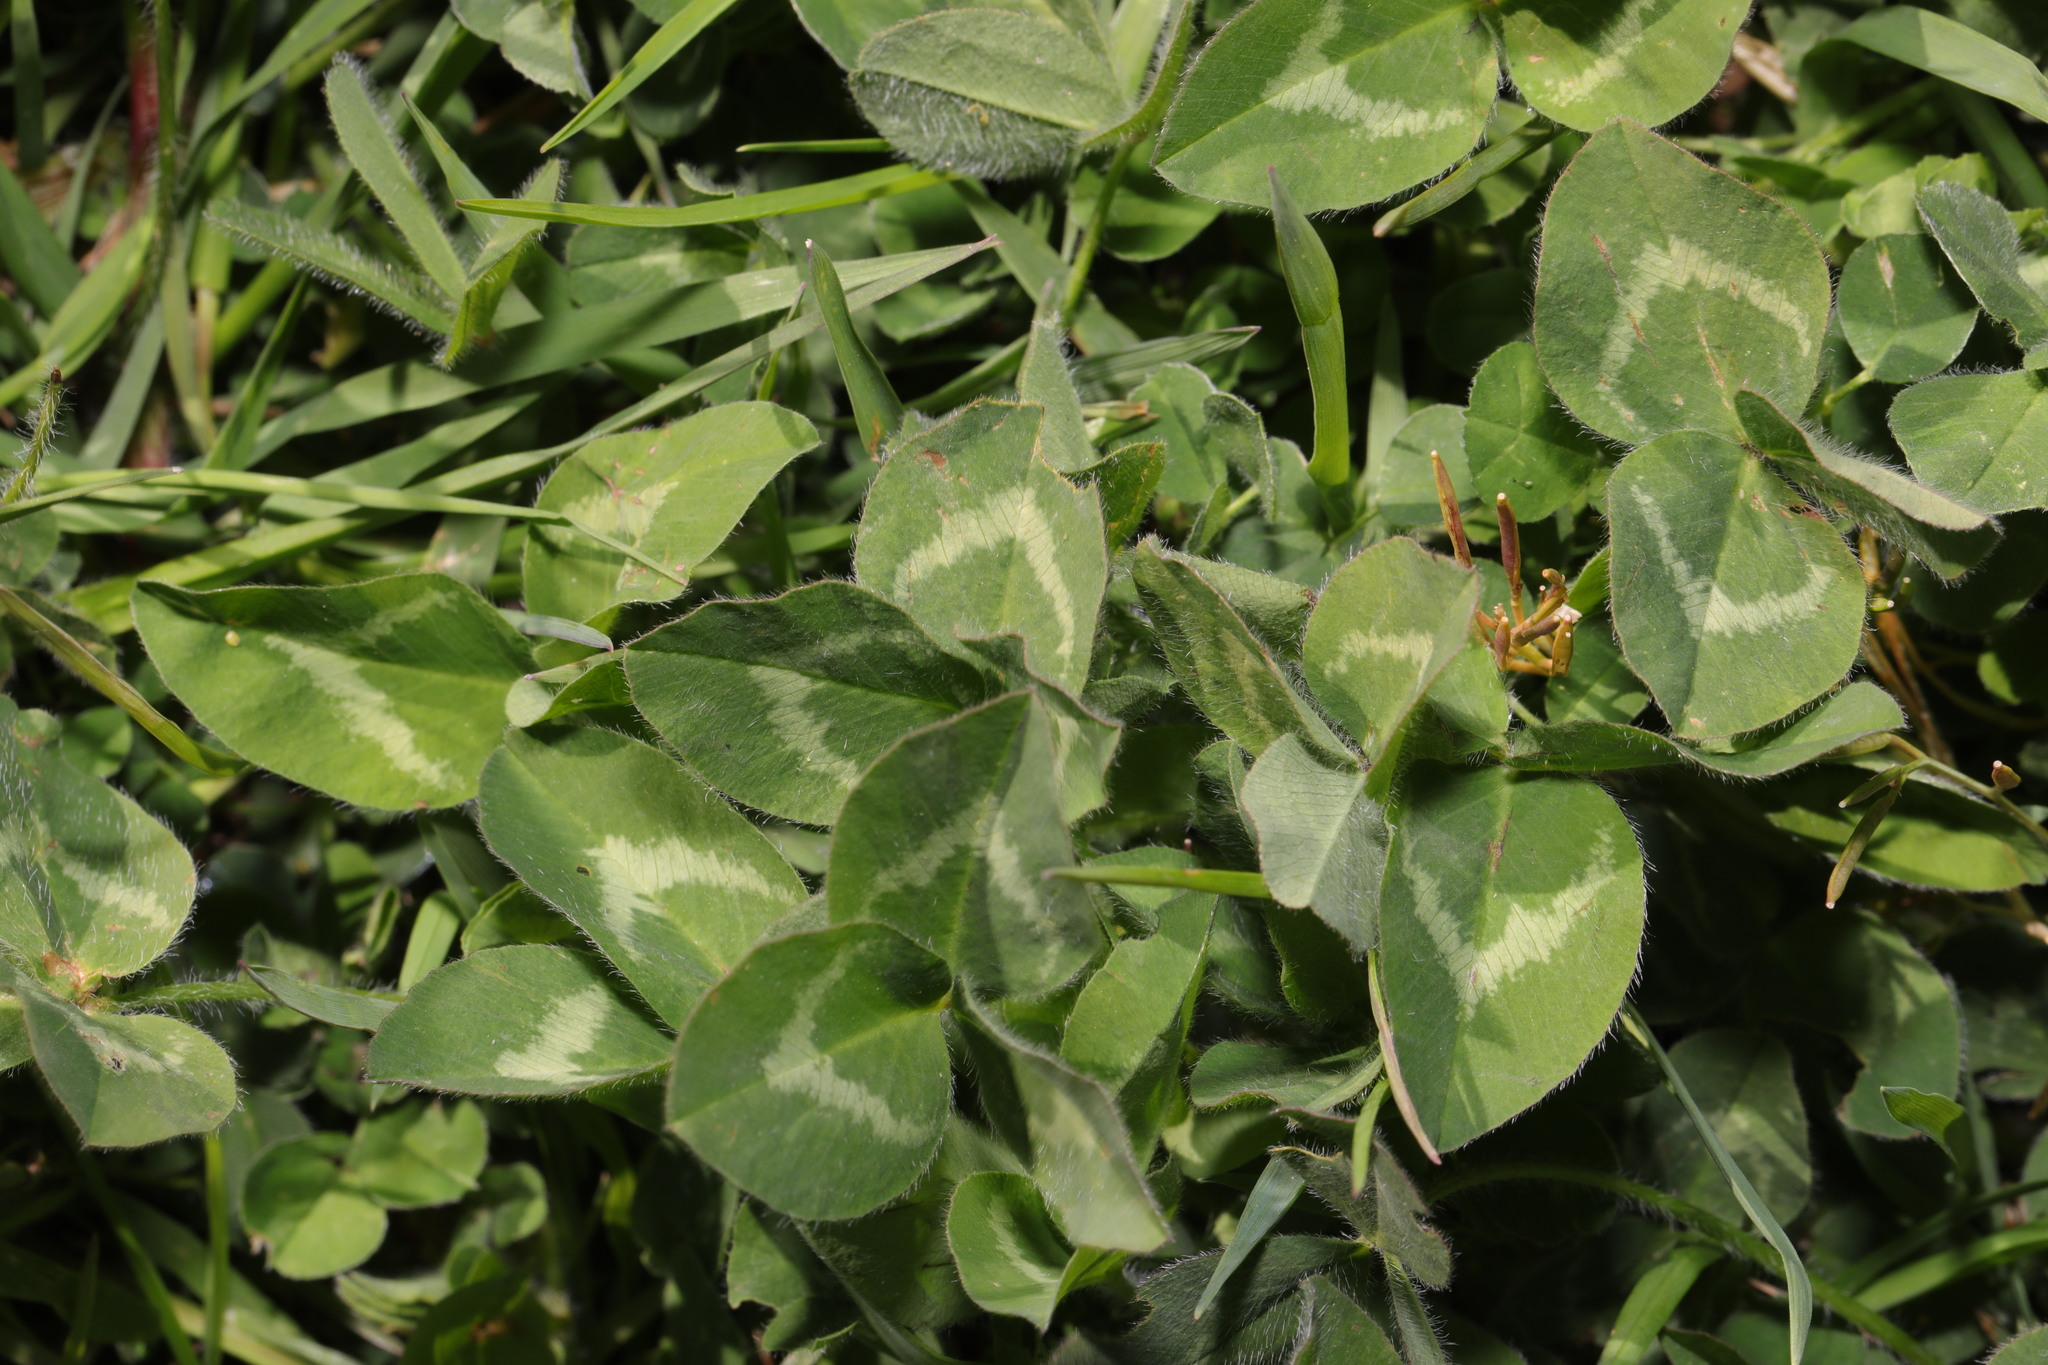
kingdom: Plantae
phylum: Tracheophyta
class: Magnoliopsida
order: Fabales
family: Fabaceae
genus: Trifolium
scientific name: Trifolium pratense
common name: Red clover
